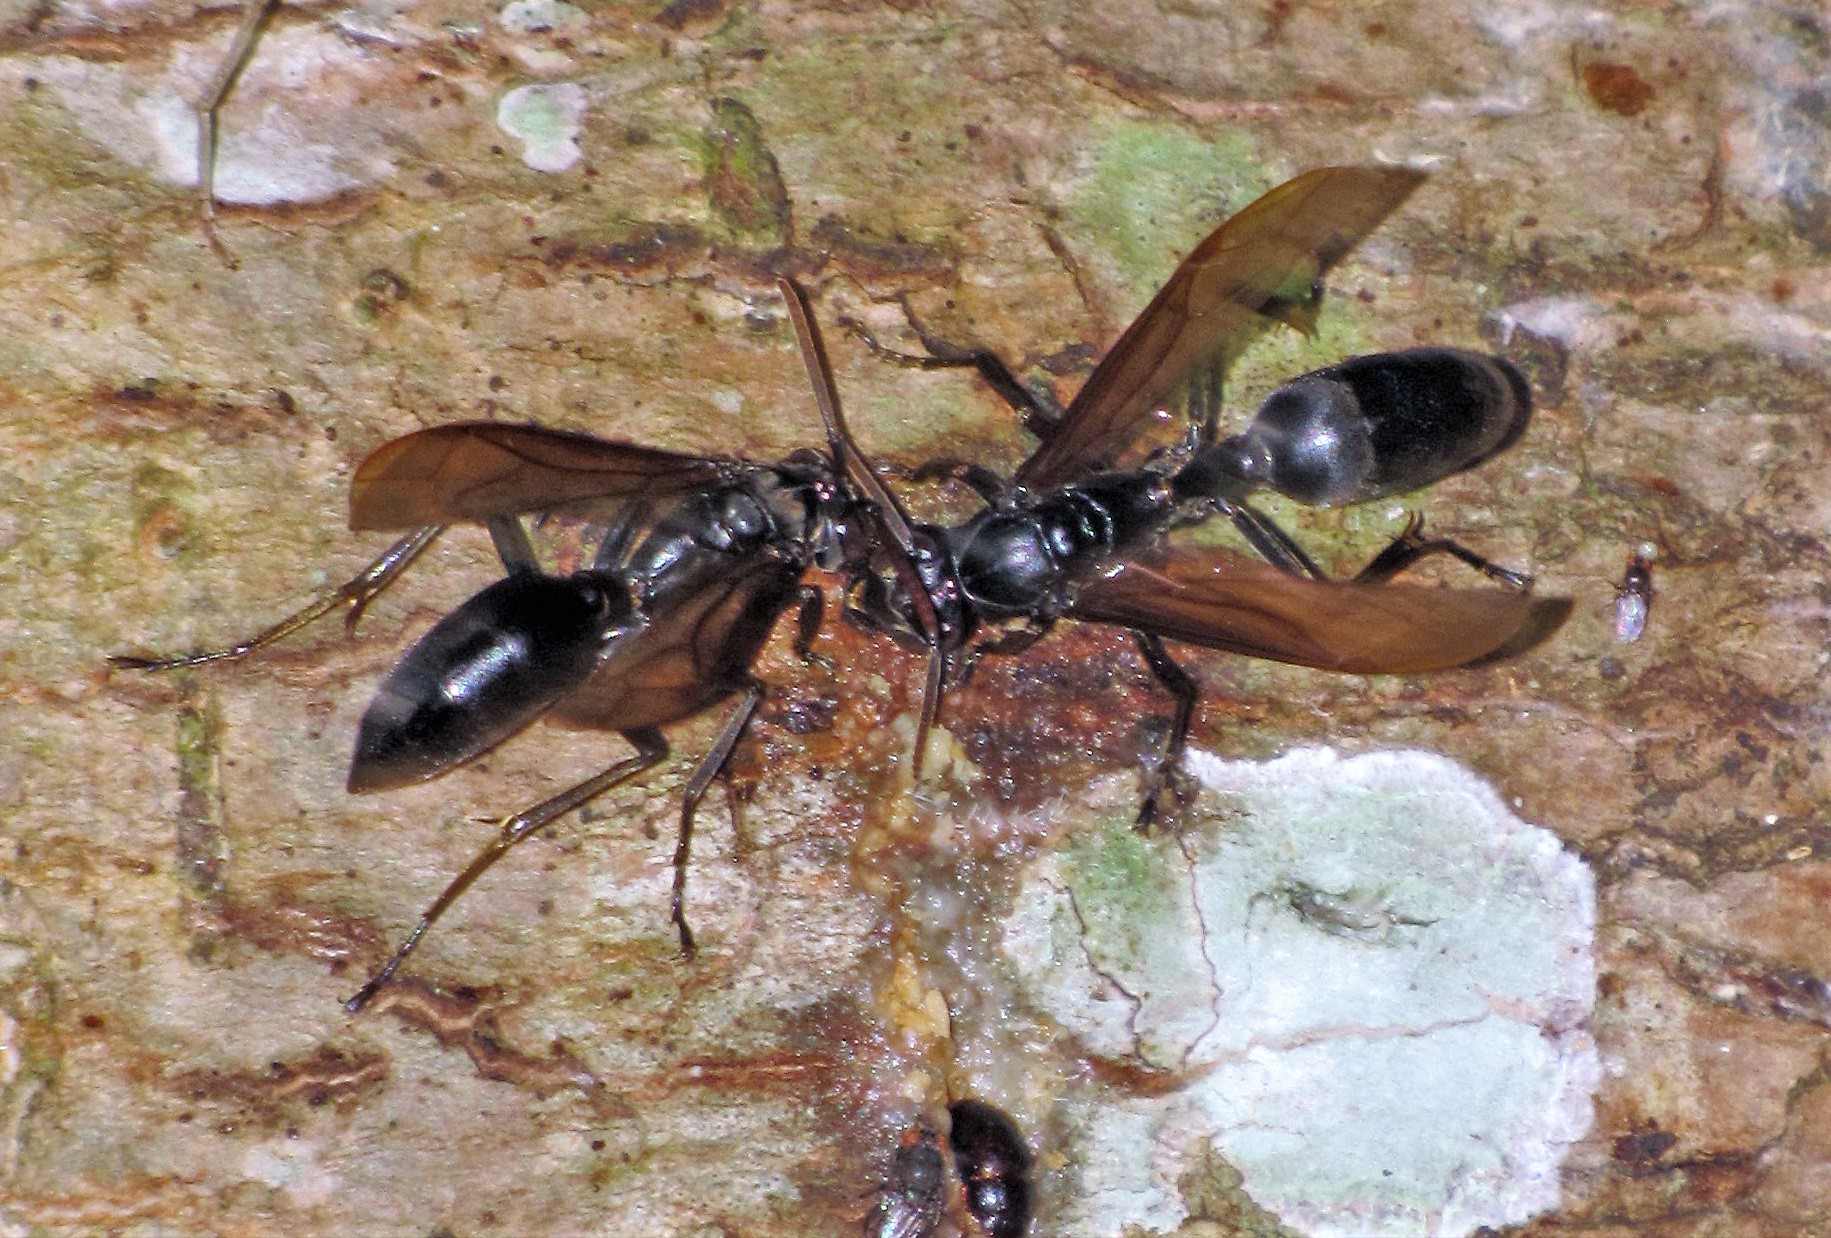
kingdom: Animalia
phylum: Arthropoda
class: Insecta
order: Hymenoptera
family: Vespidae
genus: Agelaia
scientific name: Agelaia angulata
